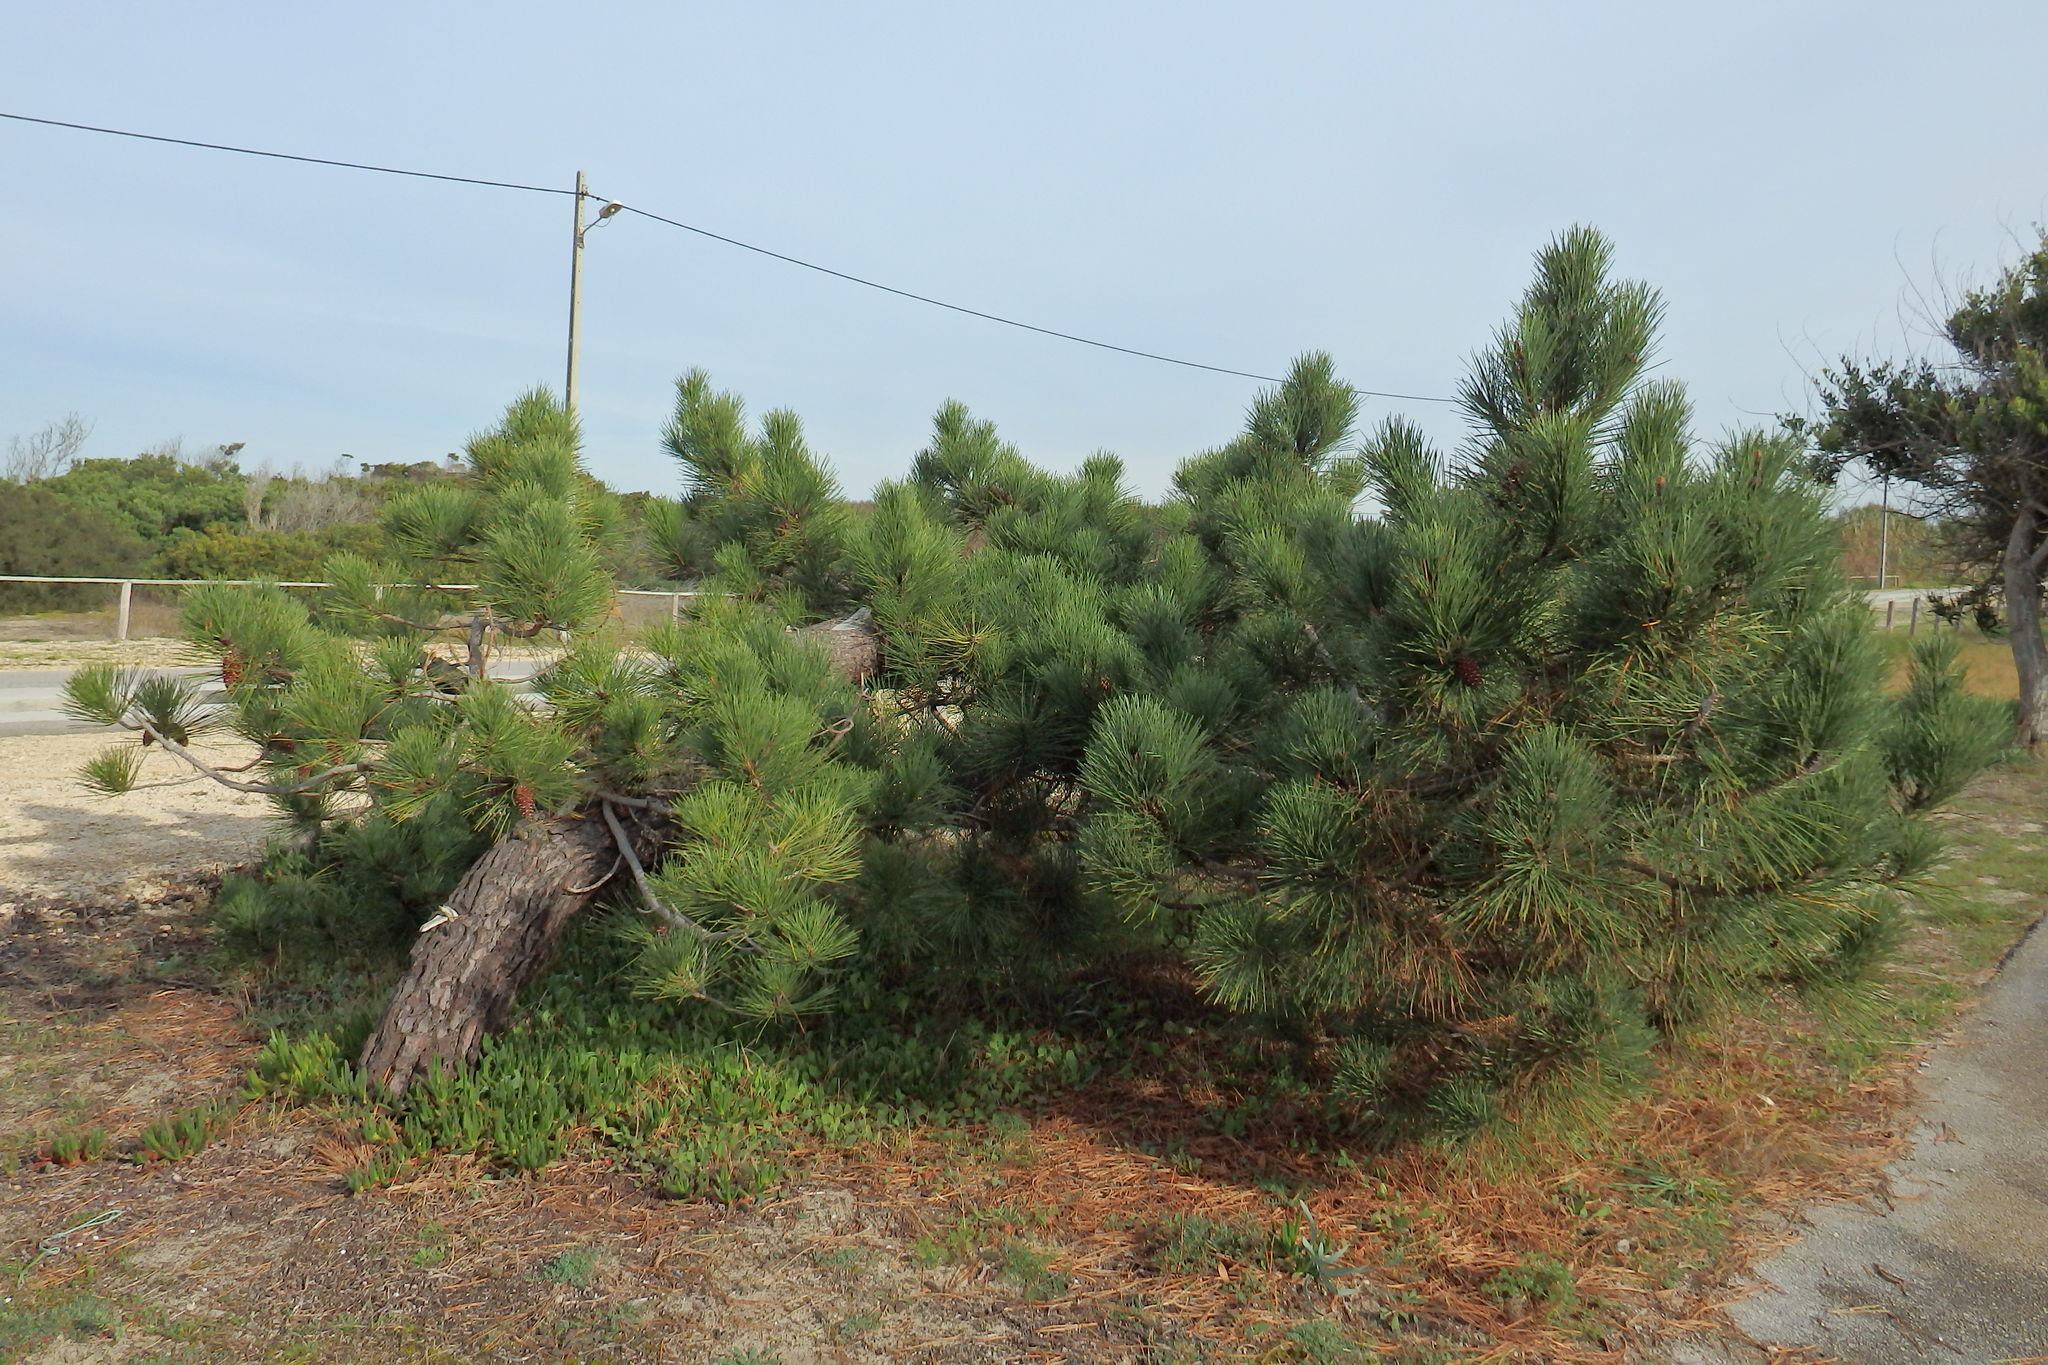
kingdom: Plantae
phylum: Tracheophyta
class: Pinopsida
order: Pinales
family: Pinaceae
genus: Pinus
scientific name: Pinus pinaster
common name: Maritime pine
